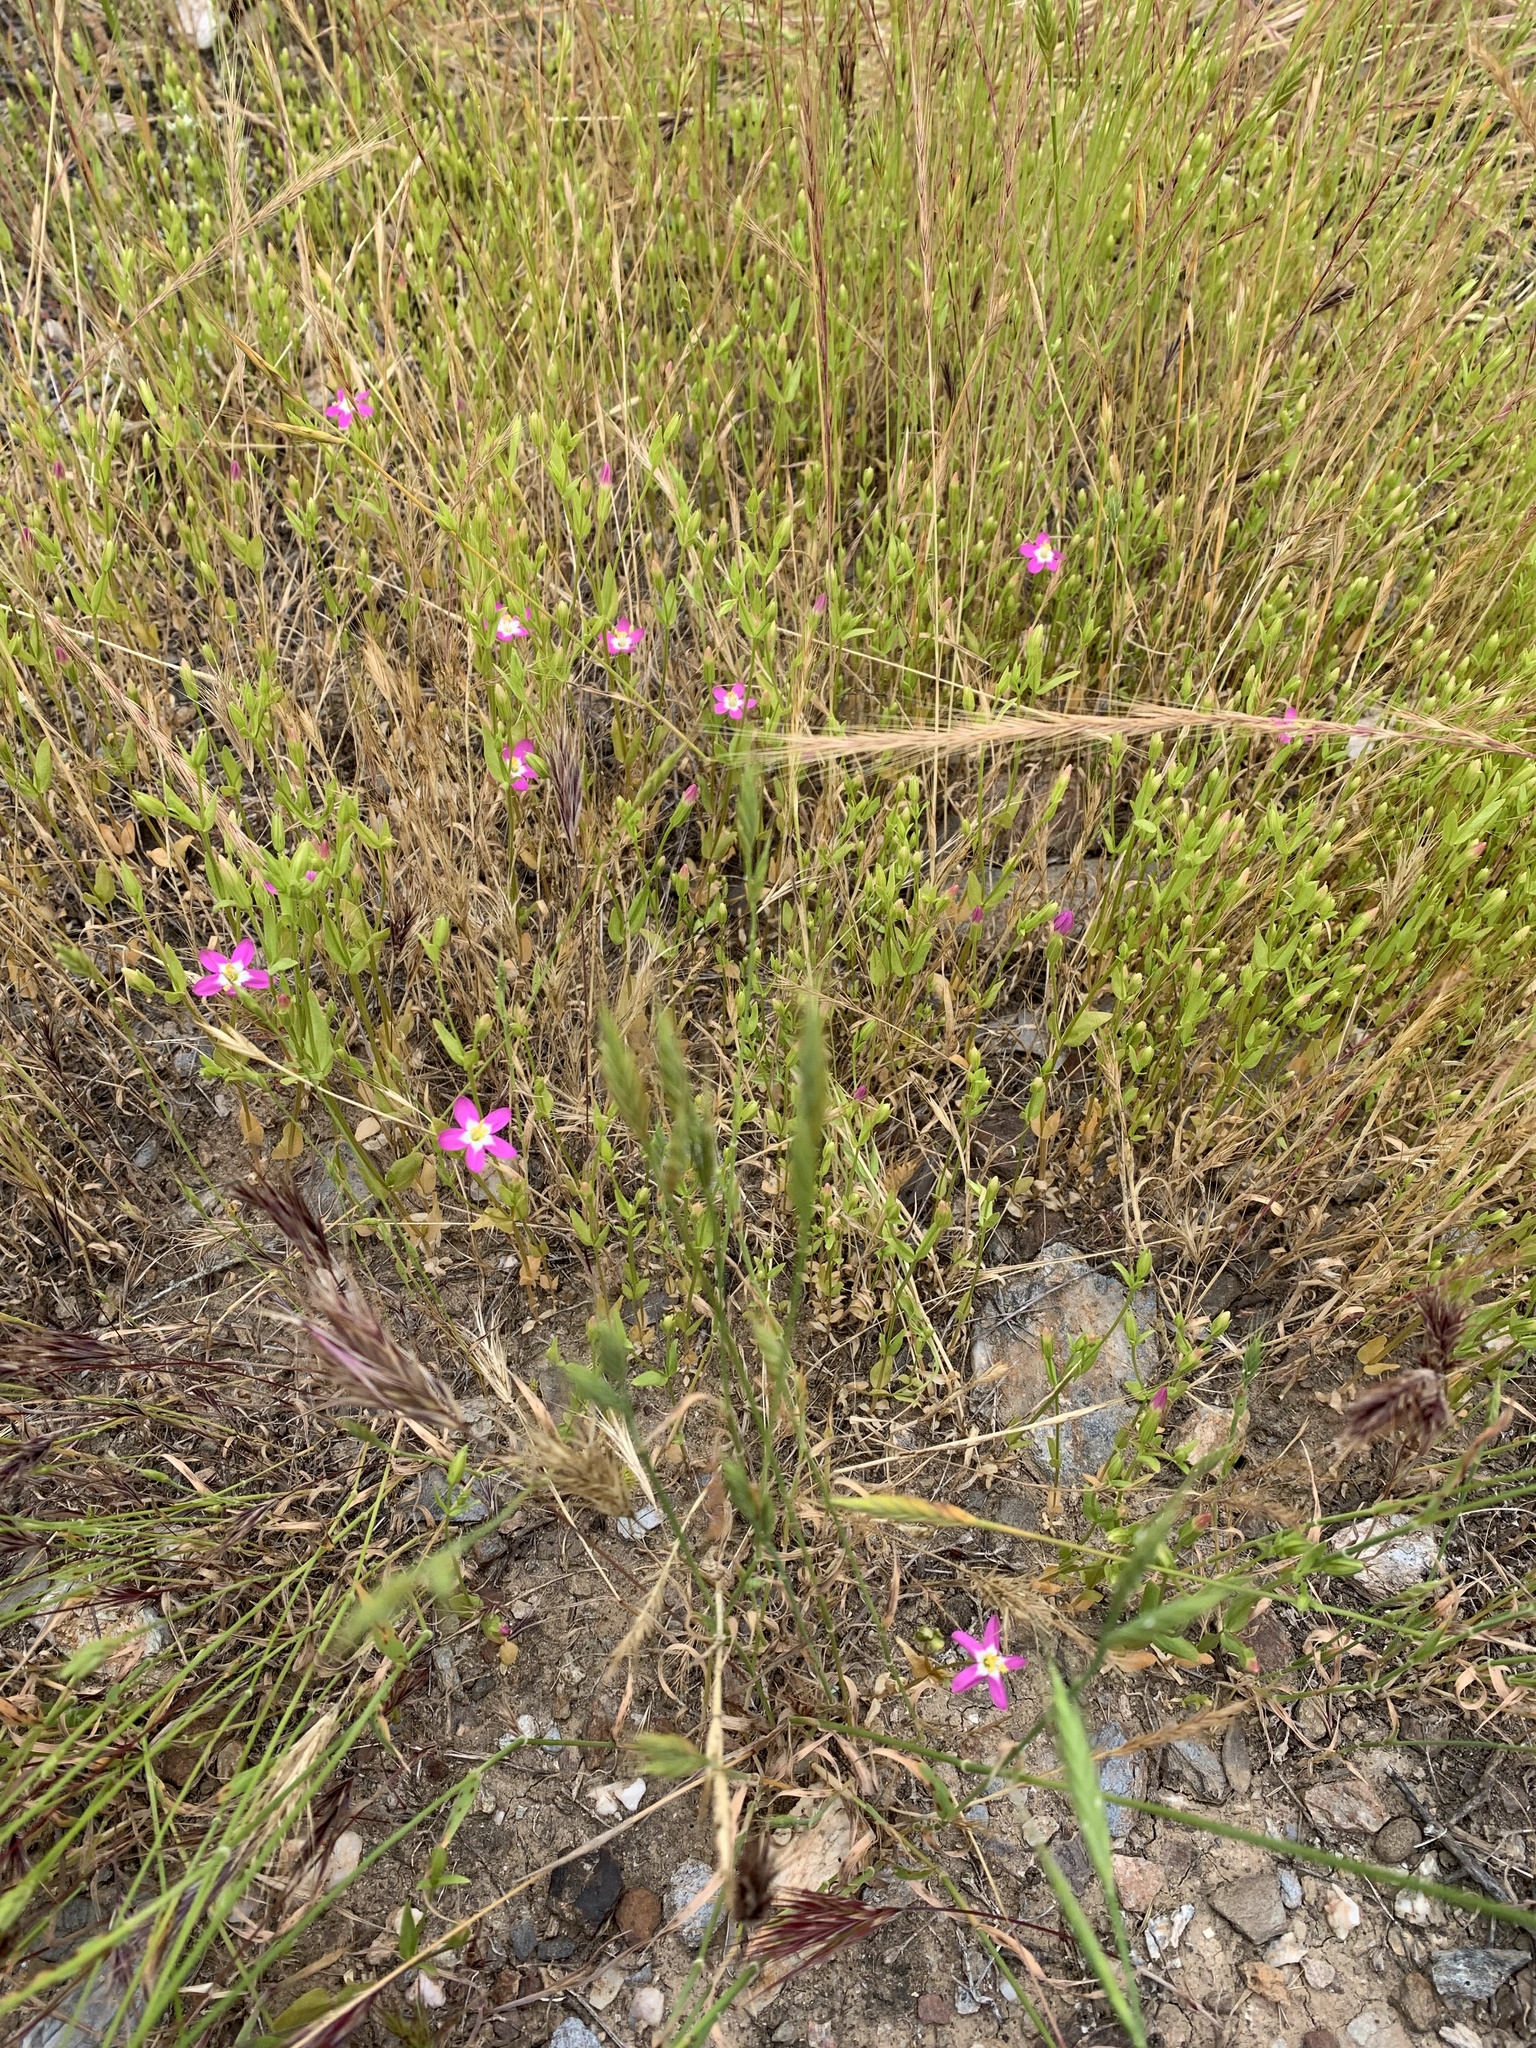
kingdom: Plantae
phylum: Tracheophyta
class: Magnoliopsida
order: Gentianales
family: Gentianaceae
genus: Zeltnera
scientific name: Zeltnera venusta
